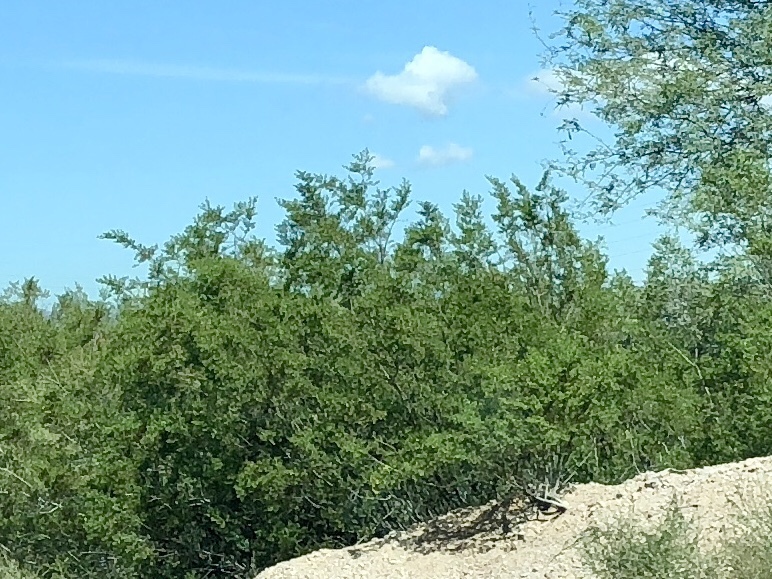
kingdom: Plantae
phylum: Tracheophyta
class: Magnoliopsida
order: Zygophyllales
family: Zygophyllaceae
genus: Larrea
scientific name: Larrea tridentata
